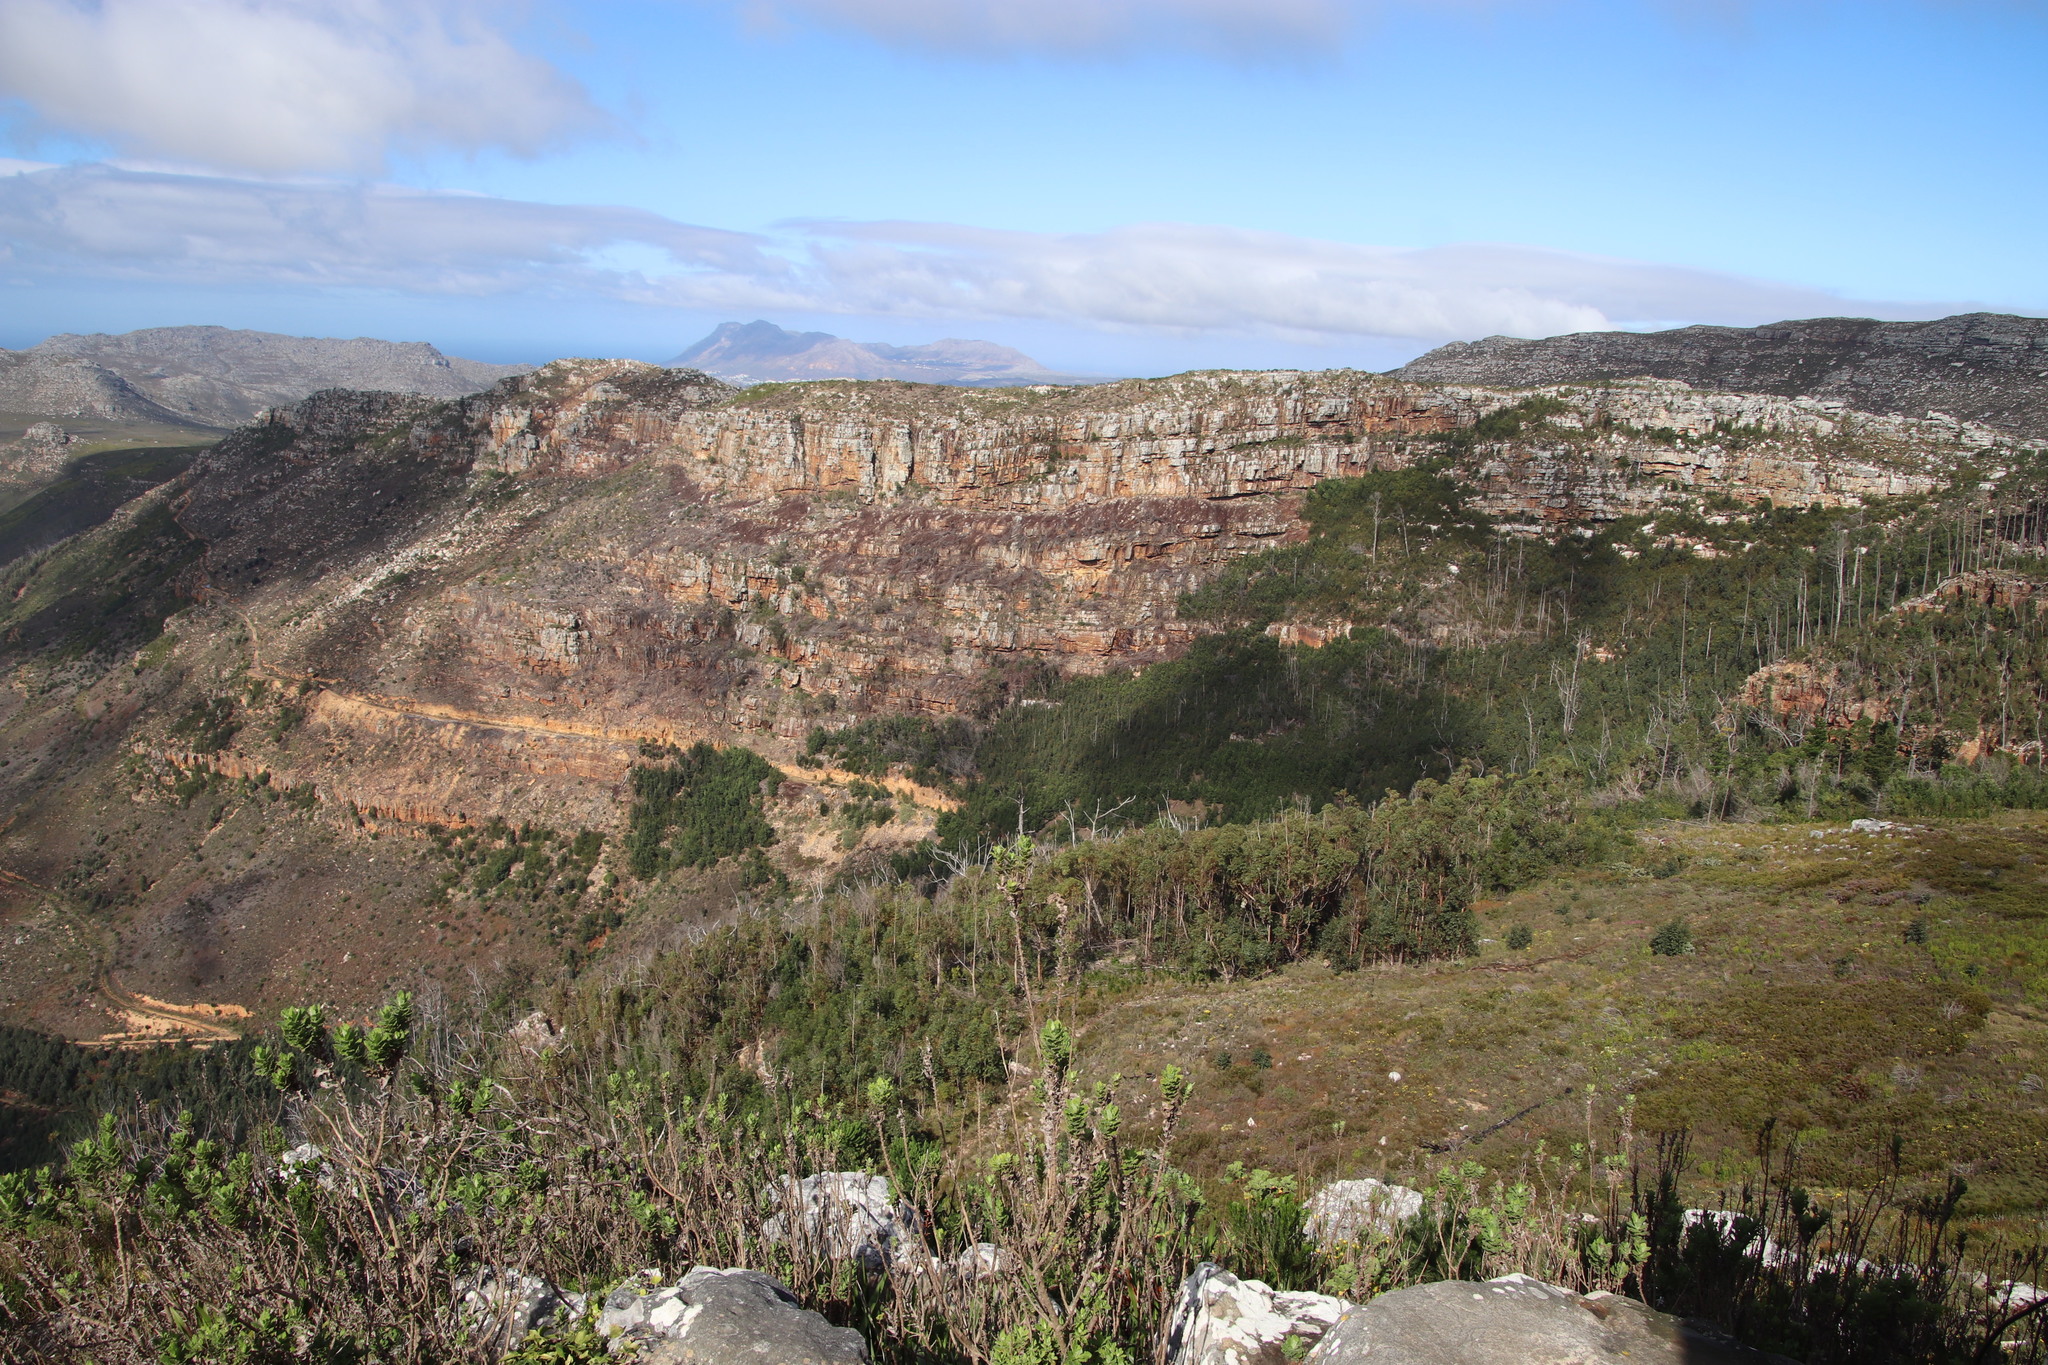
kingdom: Plantae
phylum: Tracheophyta
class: Pinopsida
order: Pinales
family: Pinaceae
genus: Pinus
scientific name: Pinus radiata
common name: Monterey pine
